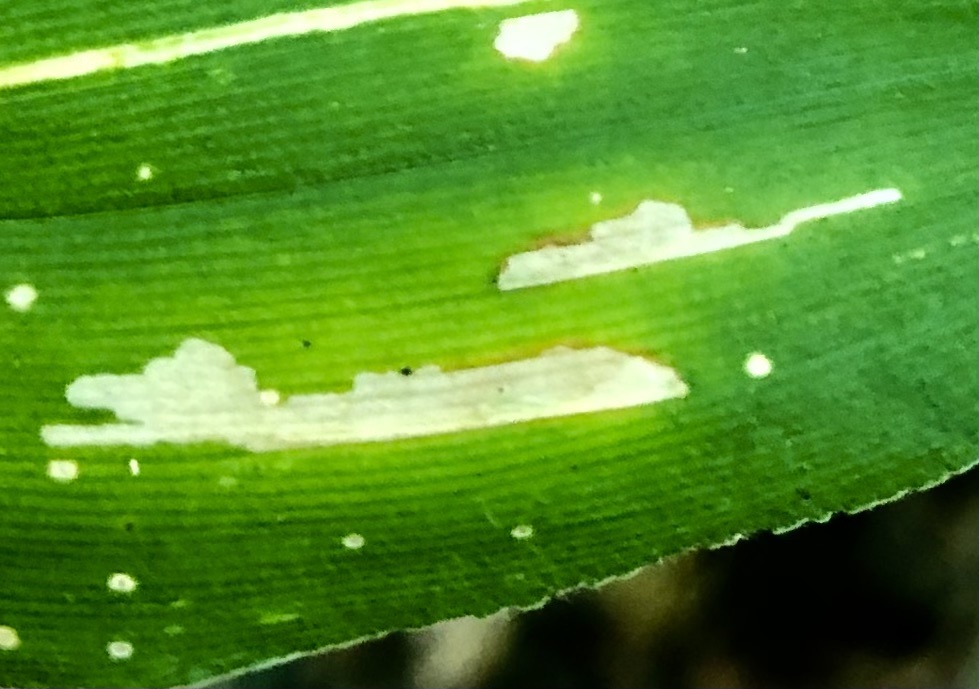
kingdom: Animalia
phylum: Arthropoda
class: Insecta
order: Lepidoptera
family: Cosmopterigidae
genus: Cosmopterix
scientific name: Cosmopterix clandestinella
